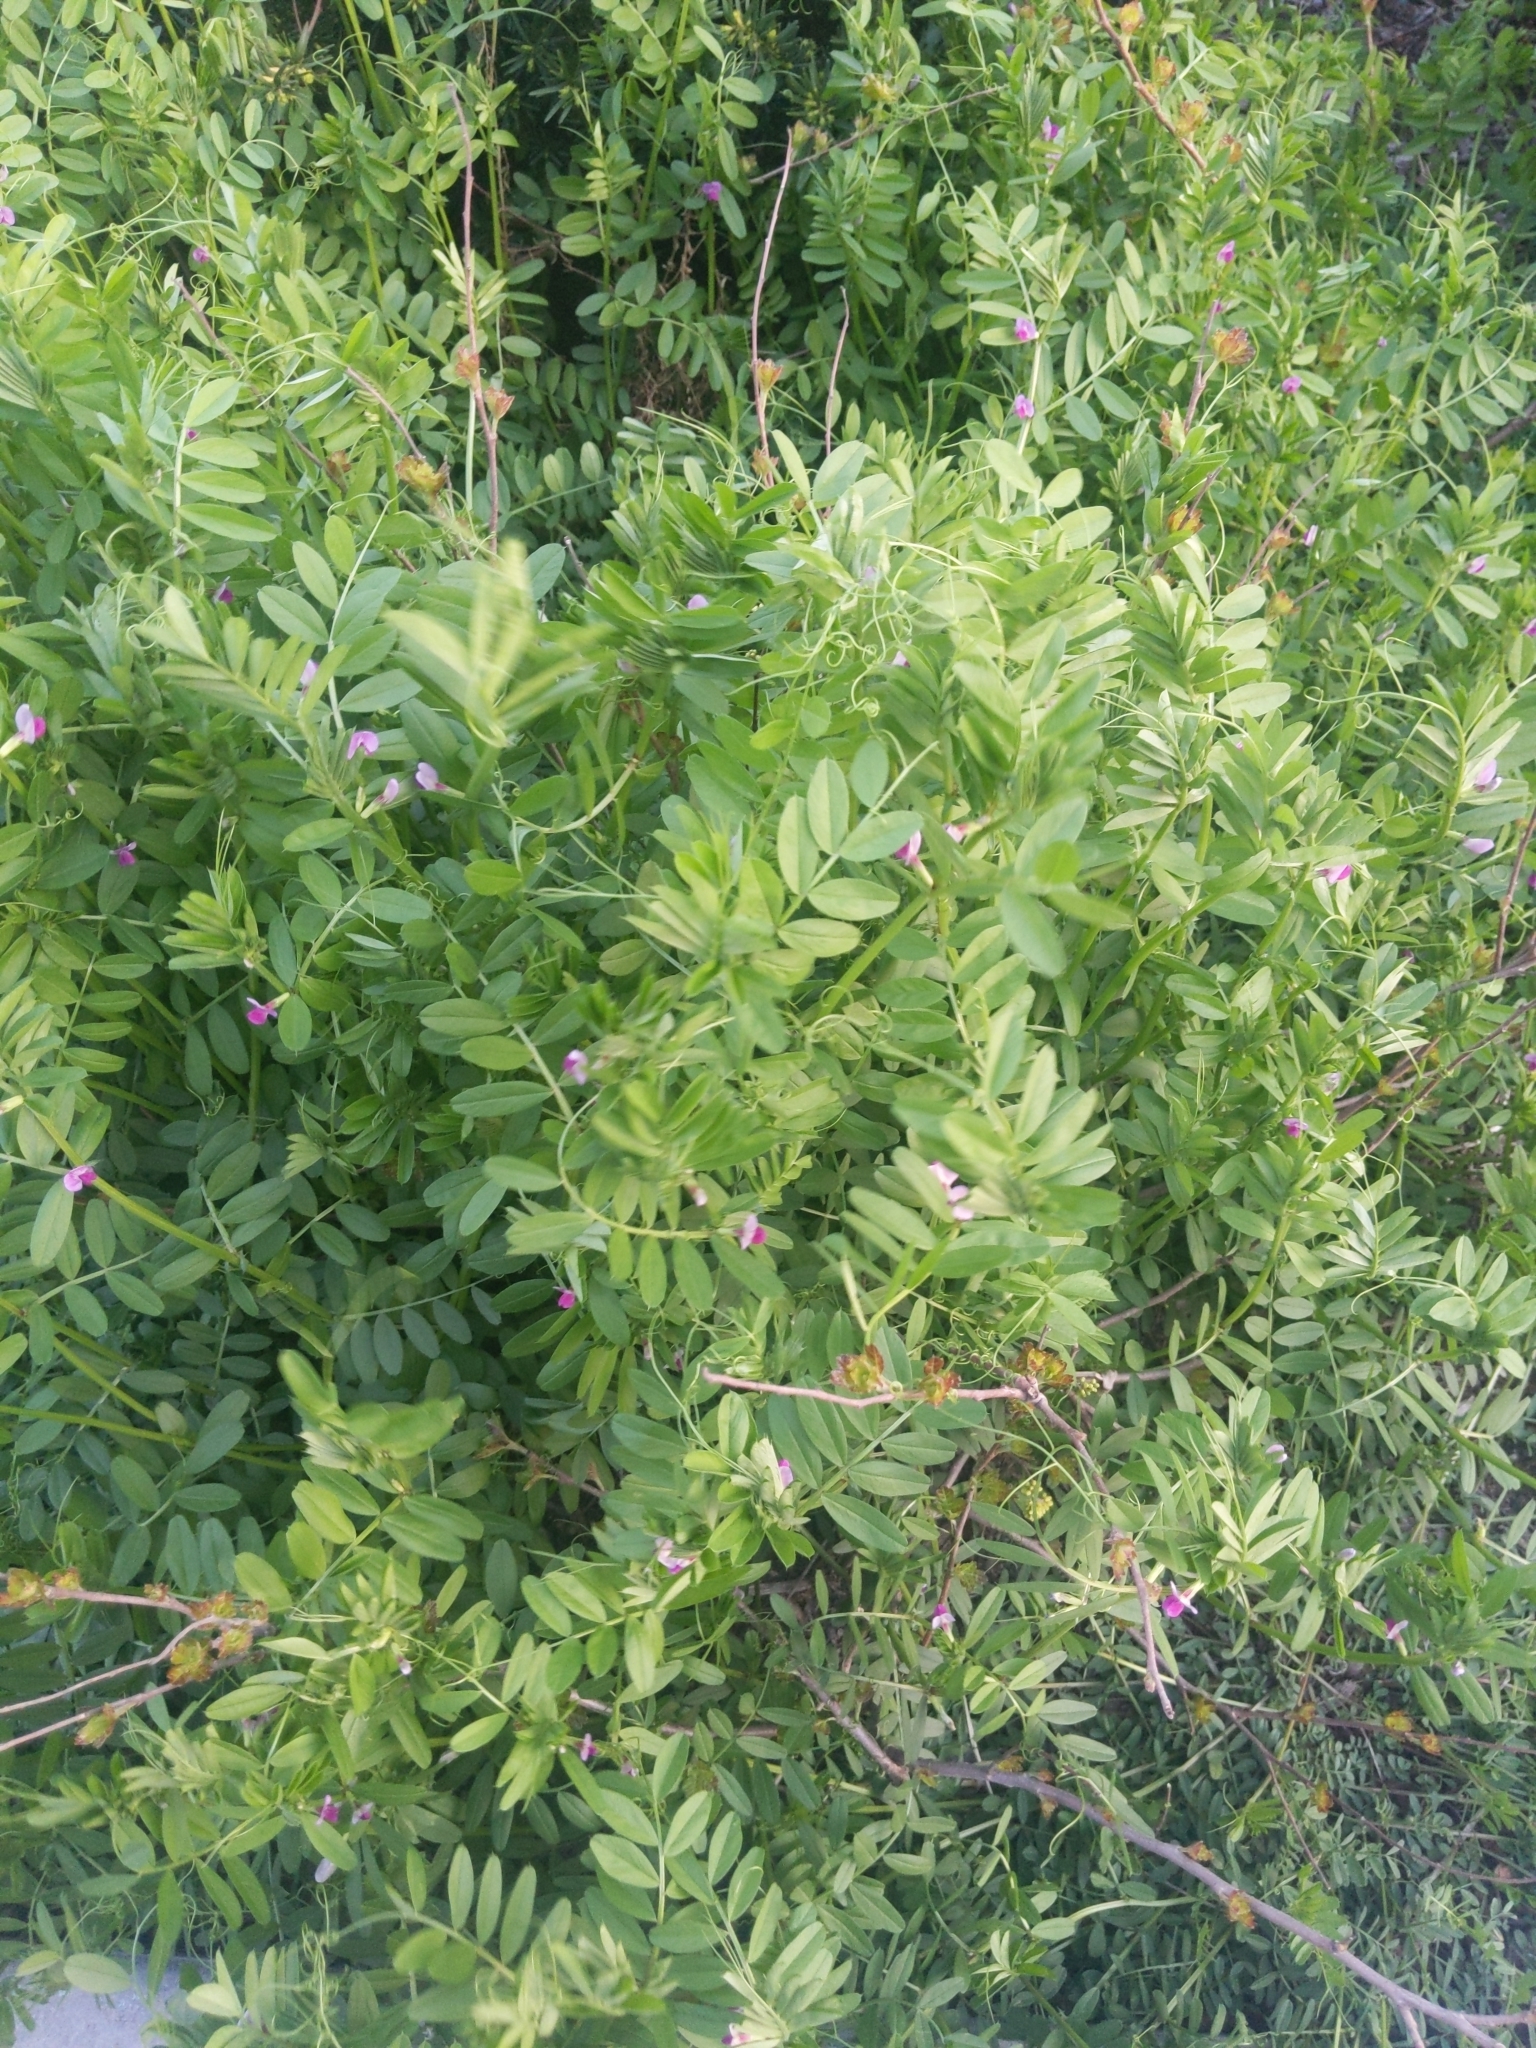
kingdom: Plantae
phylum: Tracheophyta
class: Magnoliopsida
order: Fabales
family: Fabaceae
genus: Vicia
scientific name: Vicia sativa
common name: Garden vetch
